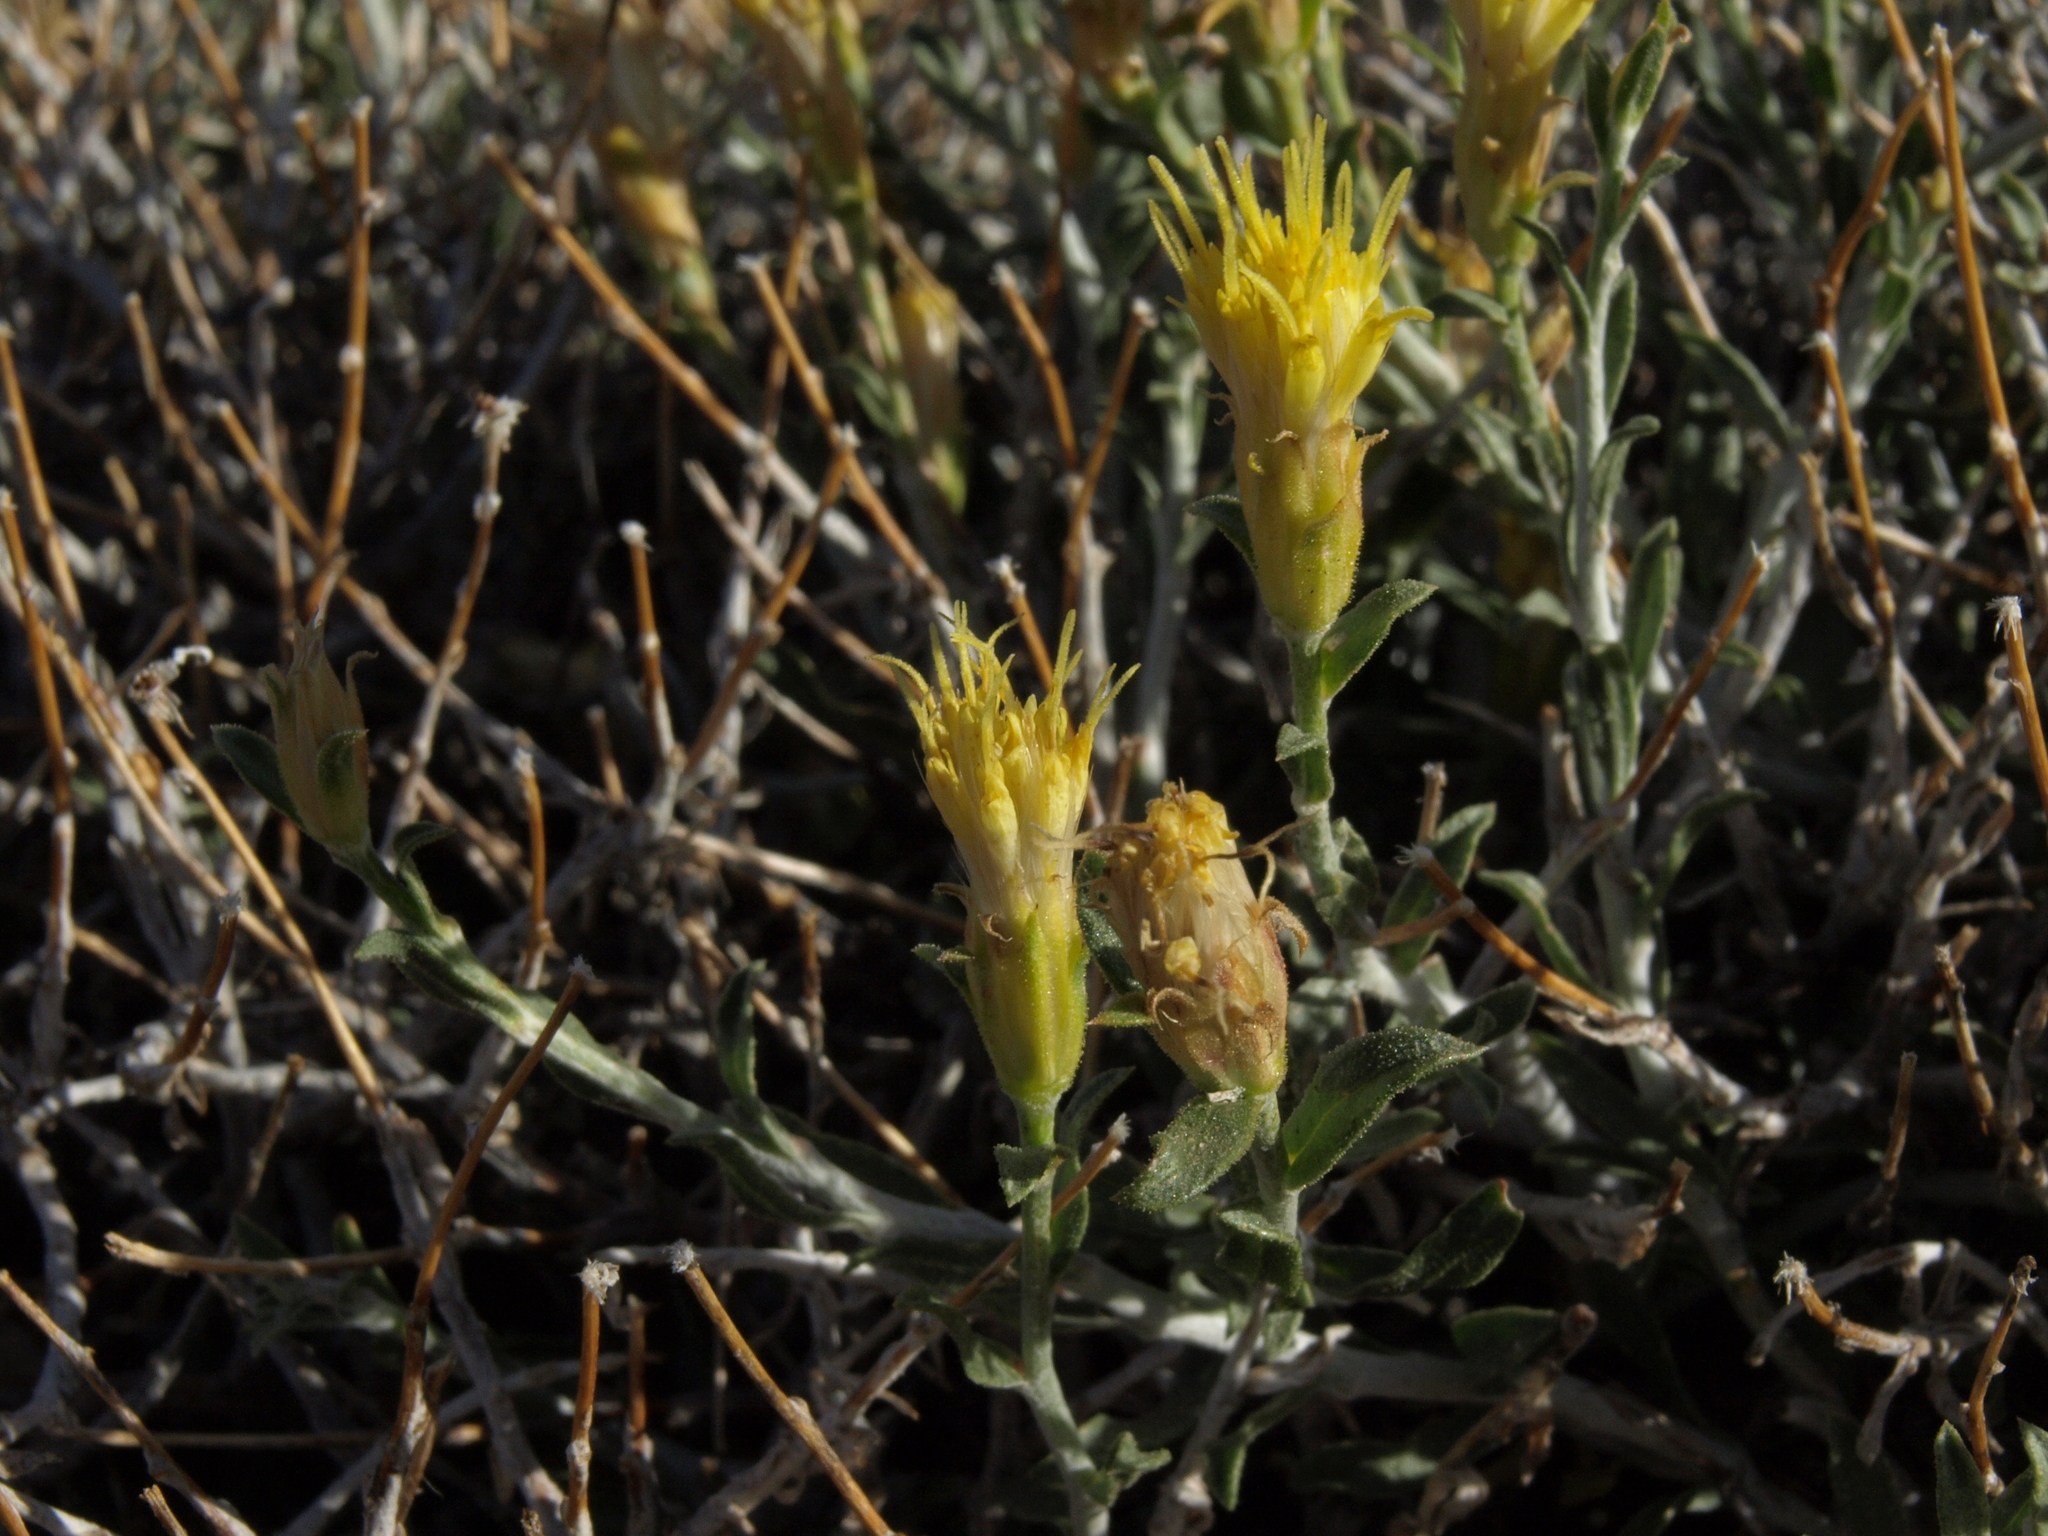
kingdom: Plantae
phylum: Tracheophyta
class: Magnoliopsida
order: Asterales
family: Asteraceae
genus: Ericameria
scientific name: Ericameria discoidea
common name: Sharp-scale goldenweed
